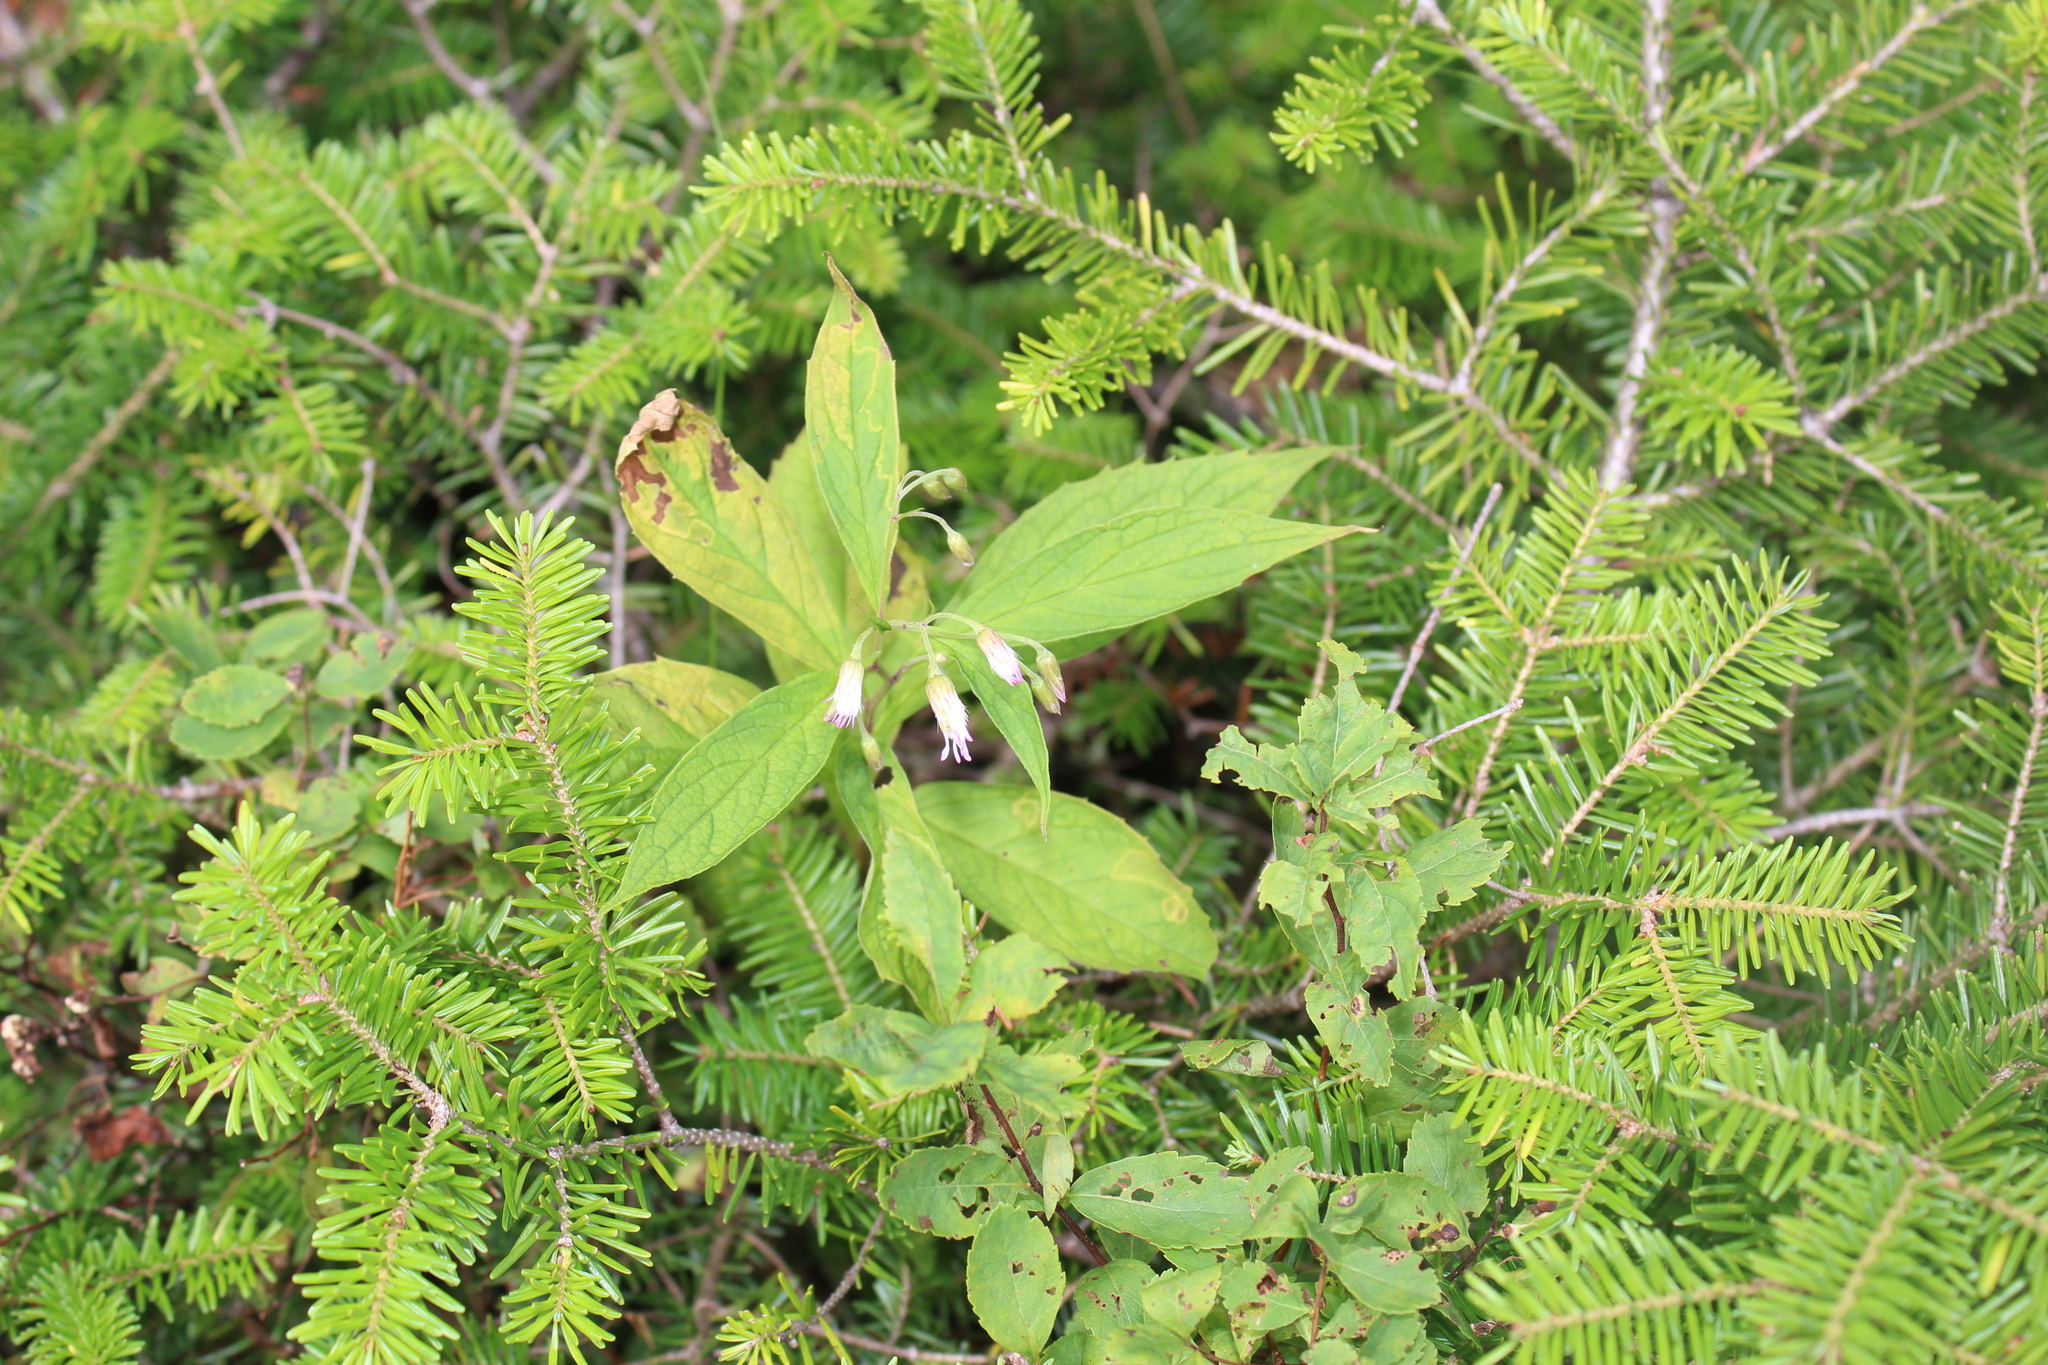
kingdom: Plantae
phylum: Tracheophyta
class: Magnoliopsida
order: Asterales
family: Asteraceae
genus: Oclemena
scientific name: Oclemena acuminata
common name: Mountain aster
